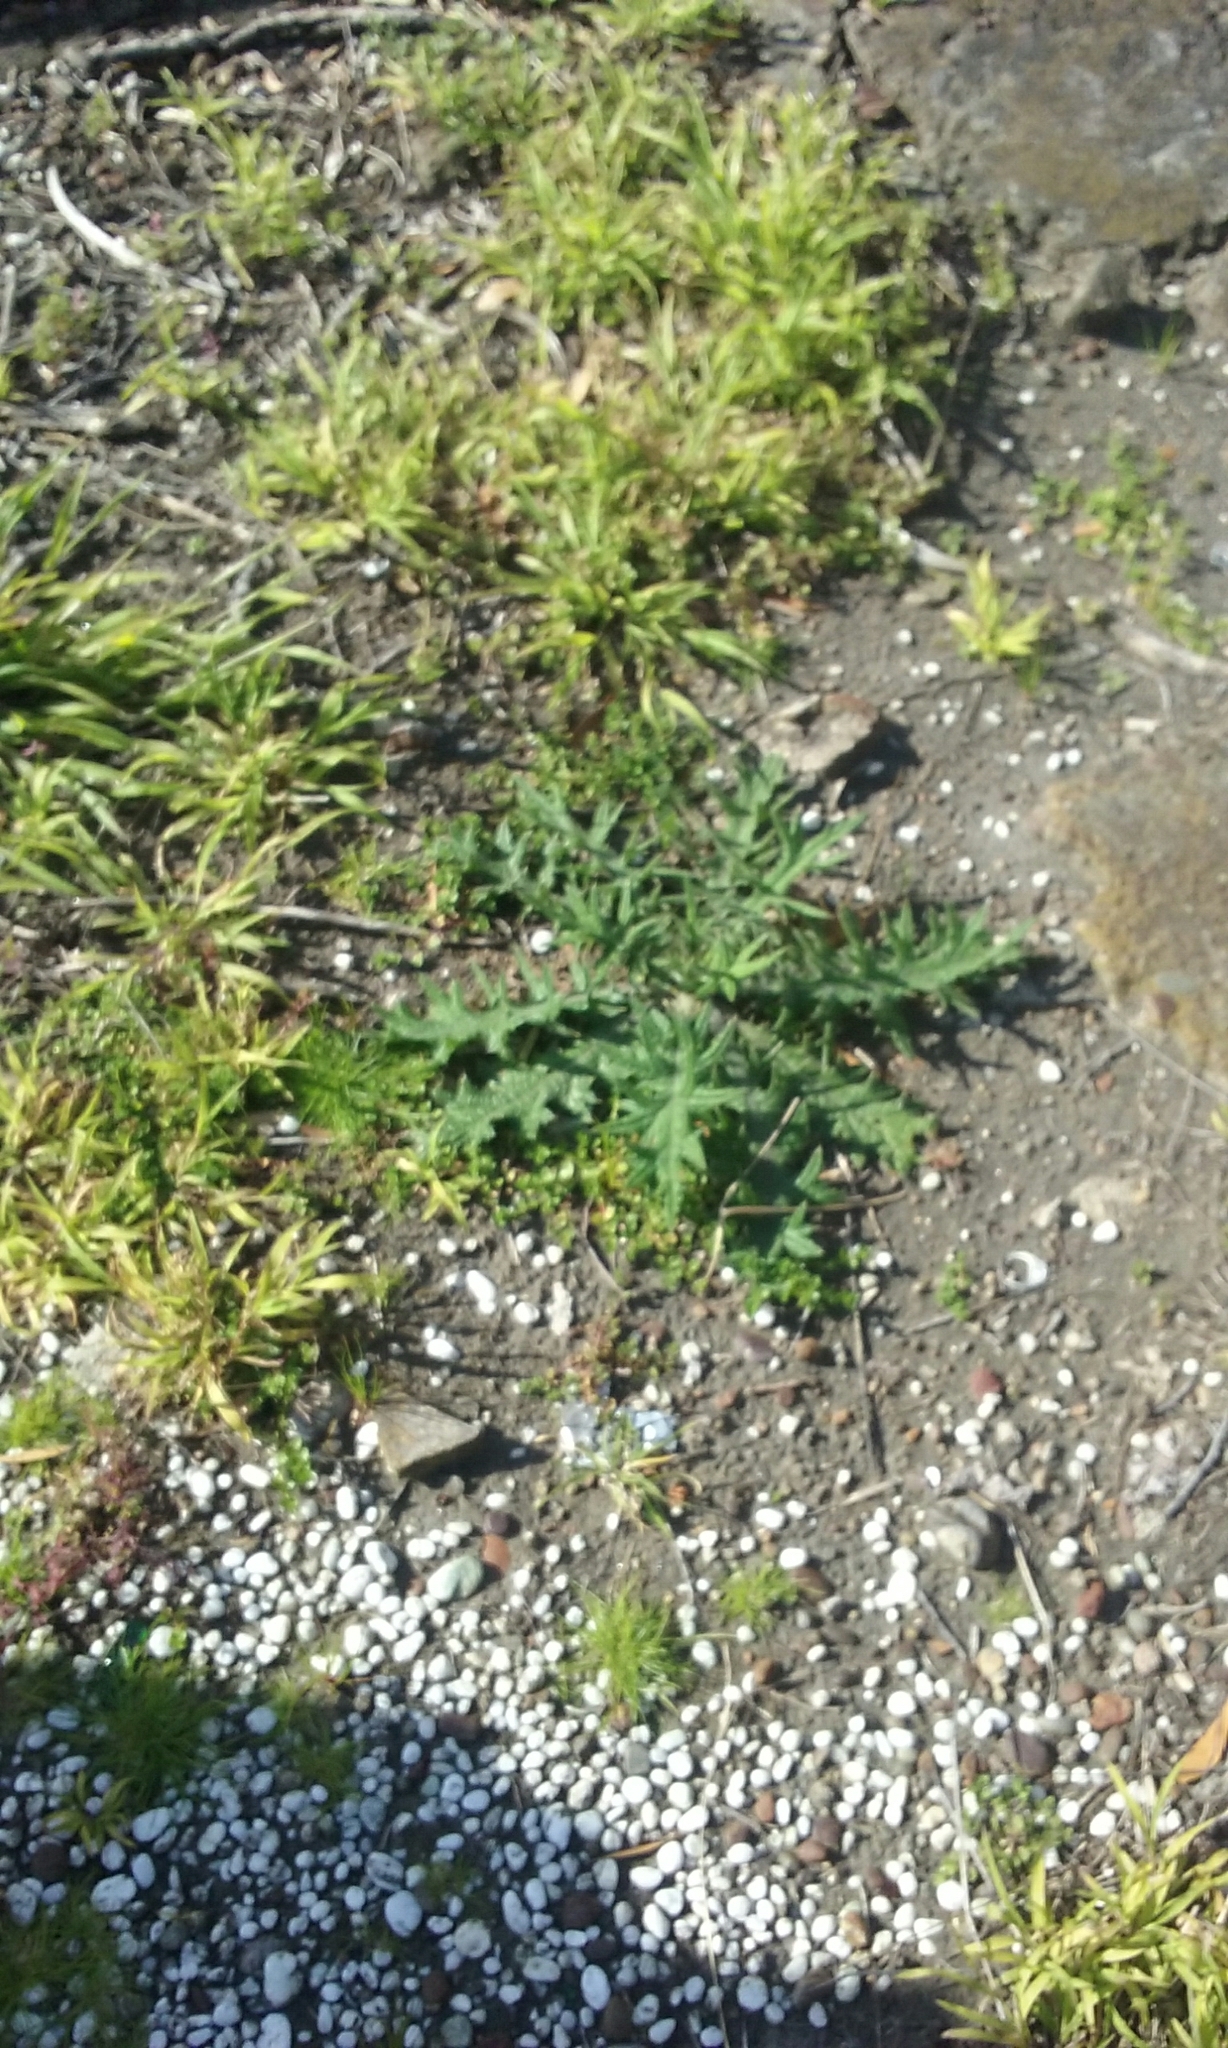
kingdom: Plantae
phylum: Tracheophyta
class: Magnoliopsida
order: Asterales
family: Asteraceae
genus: Cirsium
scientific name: Cirsium vulgare
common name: Bull thistle
